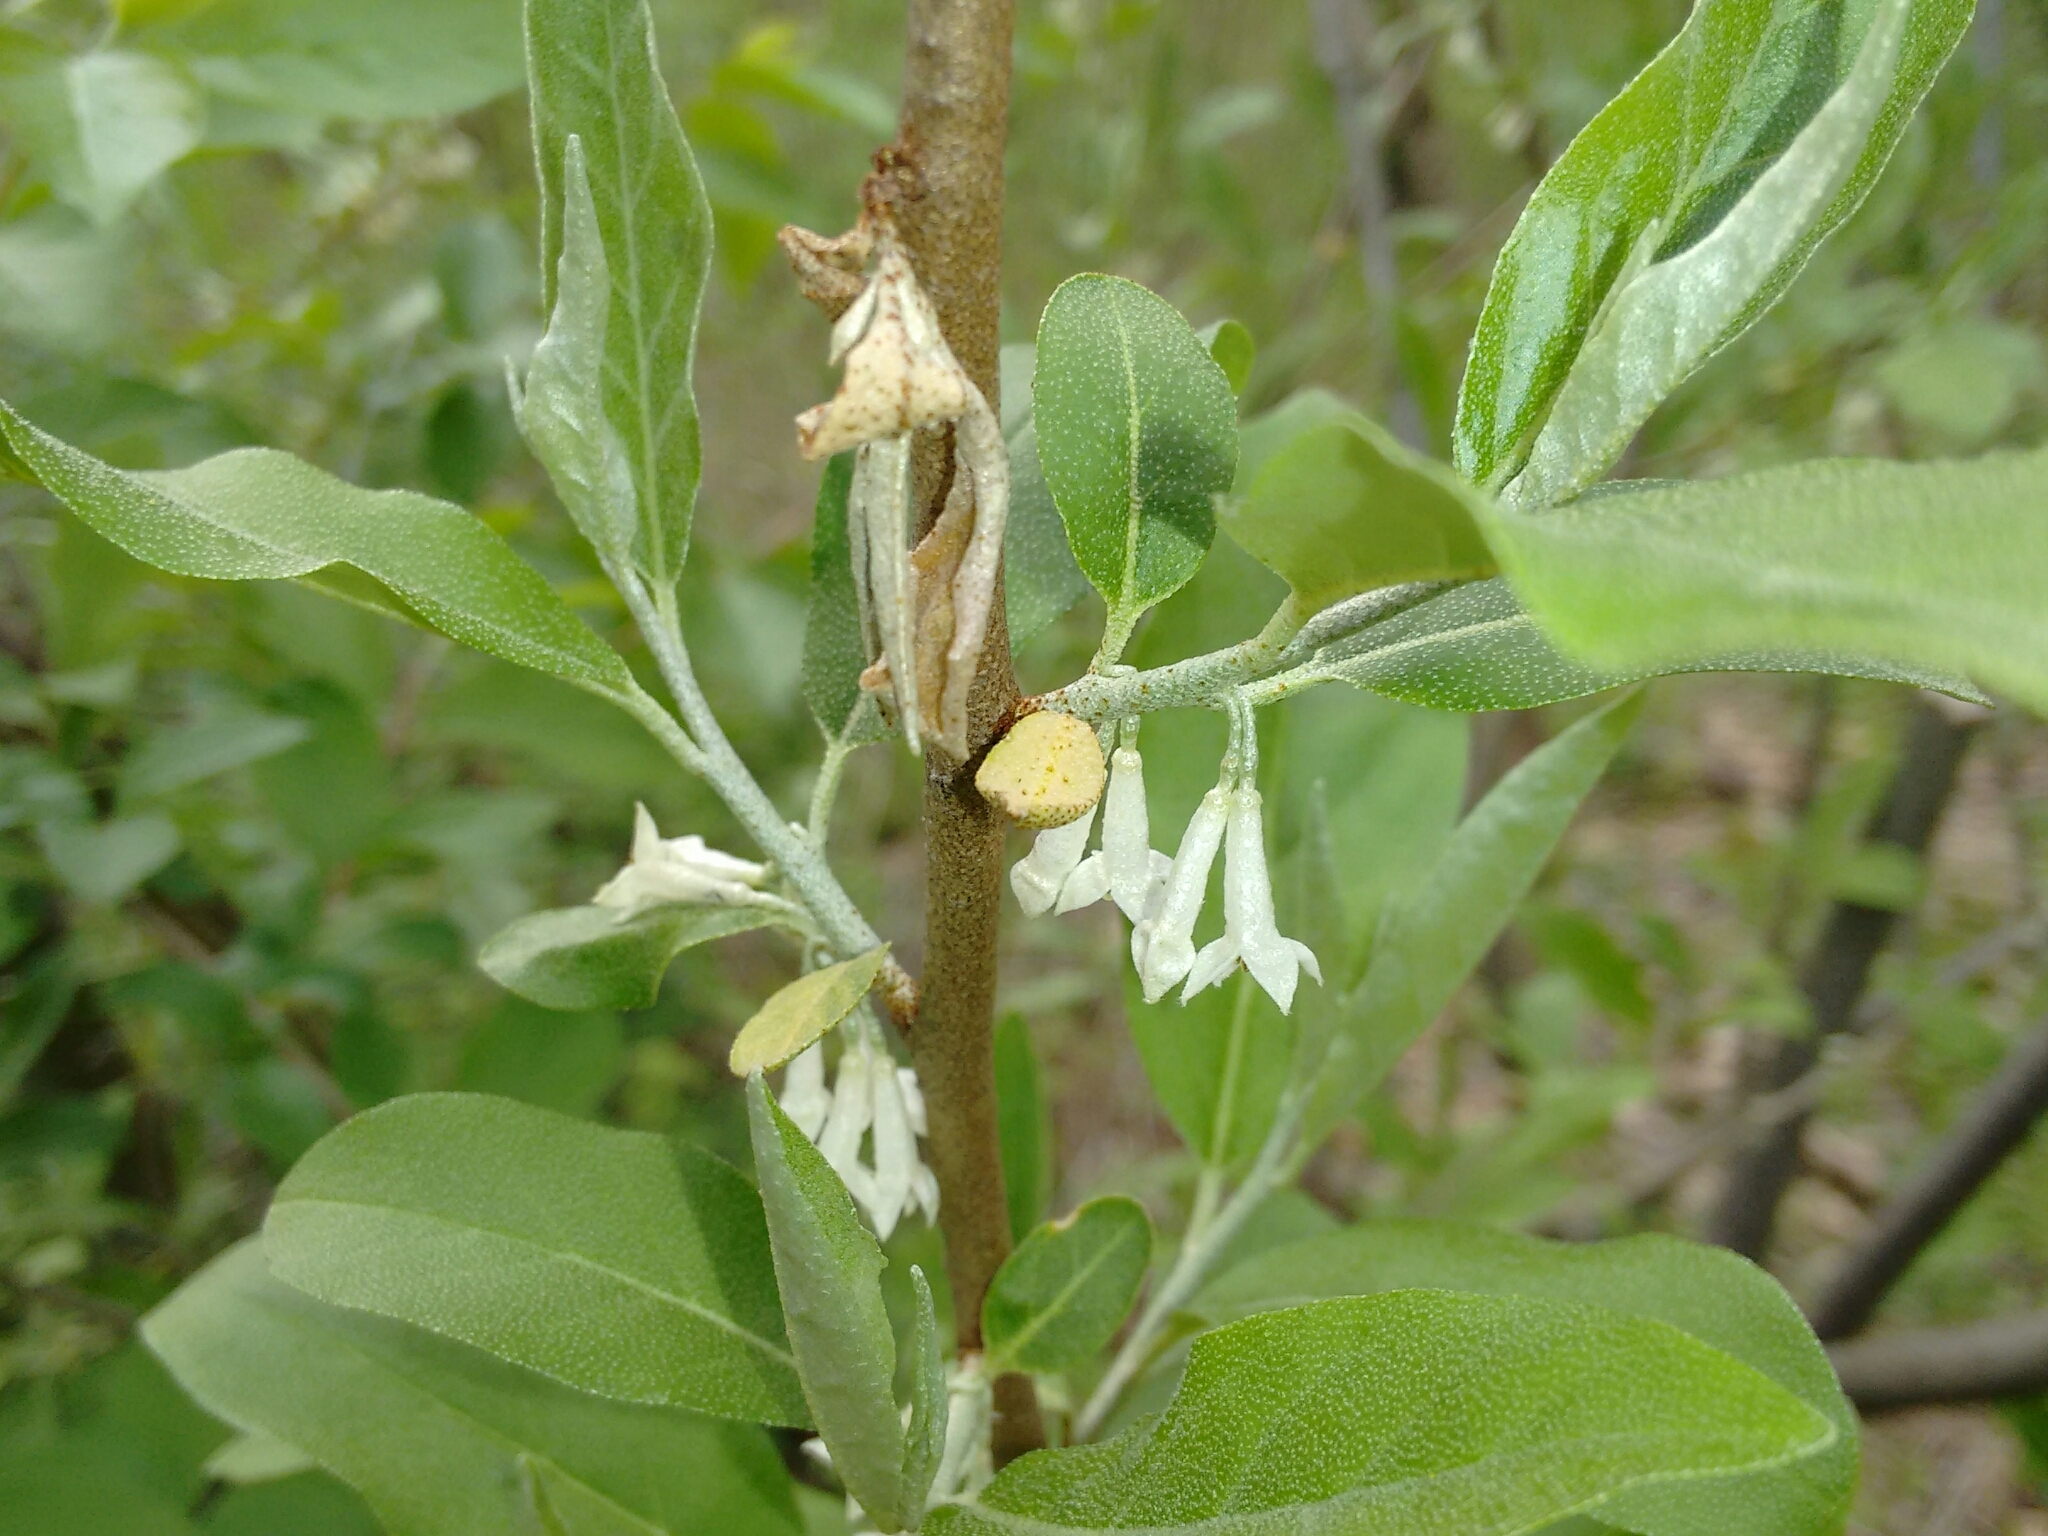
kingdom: Plantae
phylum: Tracheophyta
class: Magnoliopsida
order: Rosales
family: Elaeagnaceae
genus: Elaeagnus
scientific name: Elaeagnus umbellata
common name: Autumn olive
